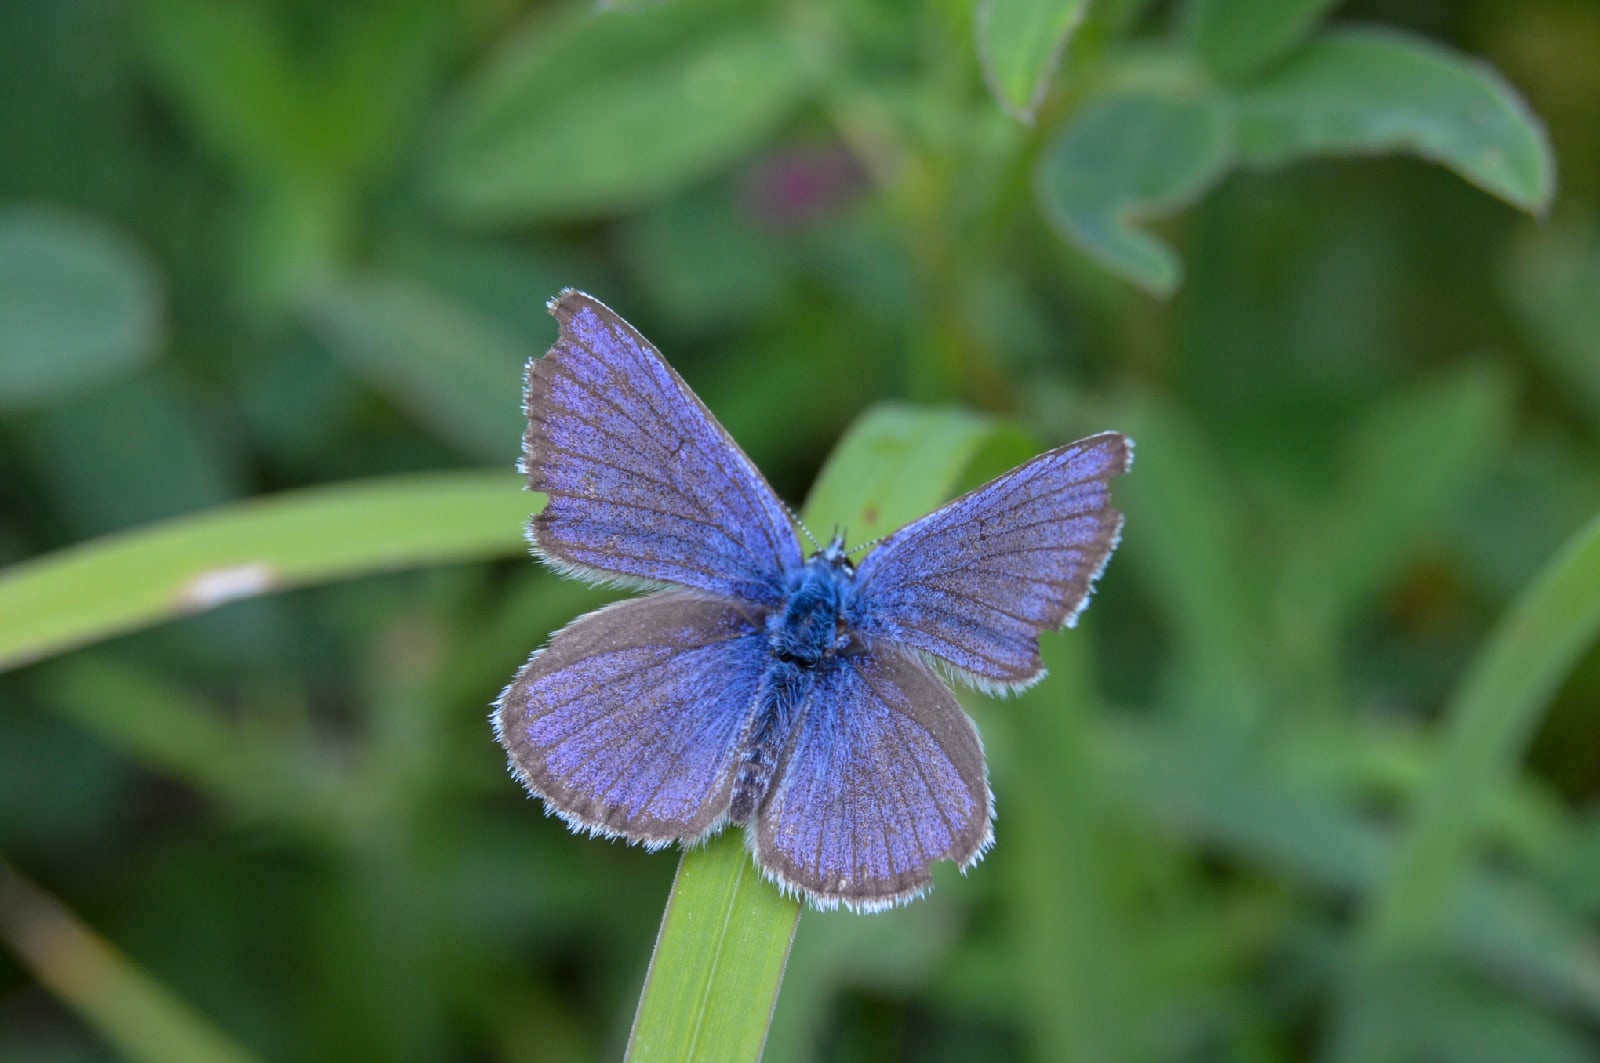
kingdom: Animalia
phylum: Arthropoda
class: Insecta
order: Lepidoptera
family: Lycaenidae
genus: Cyaniris
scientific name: Cyaniris semiargus
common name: Mazarine blue
